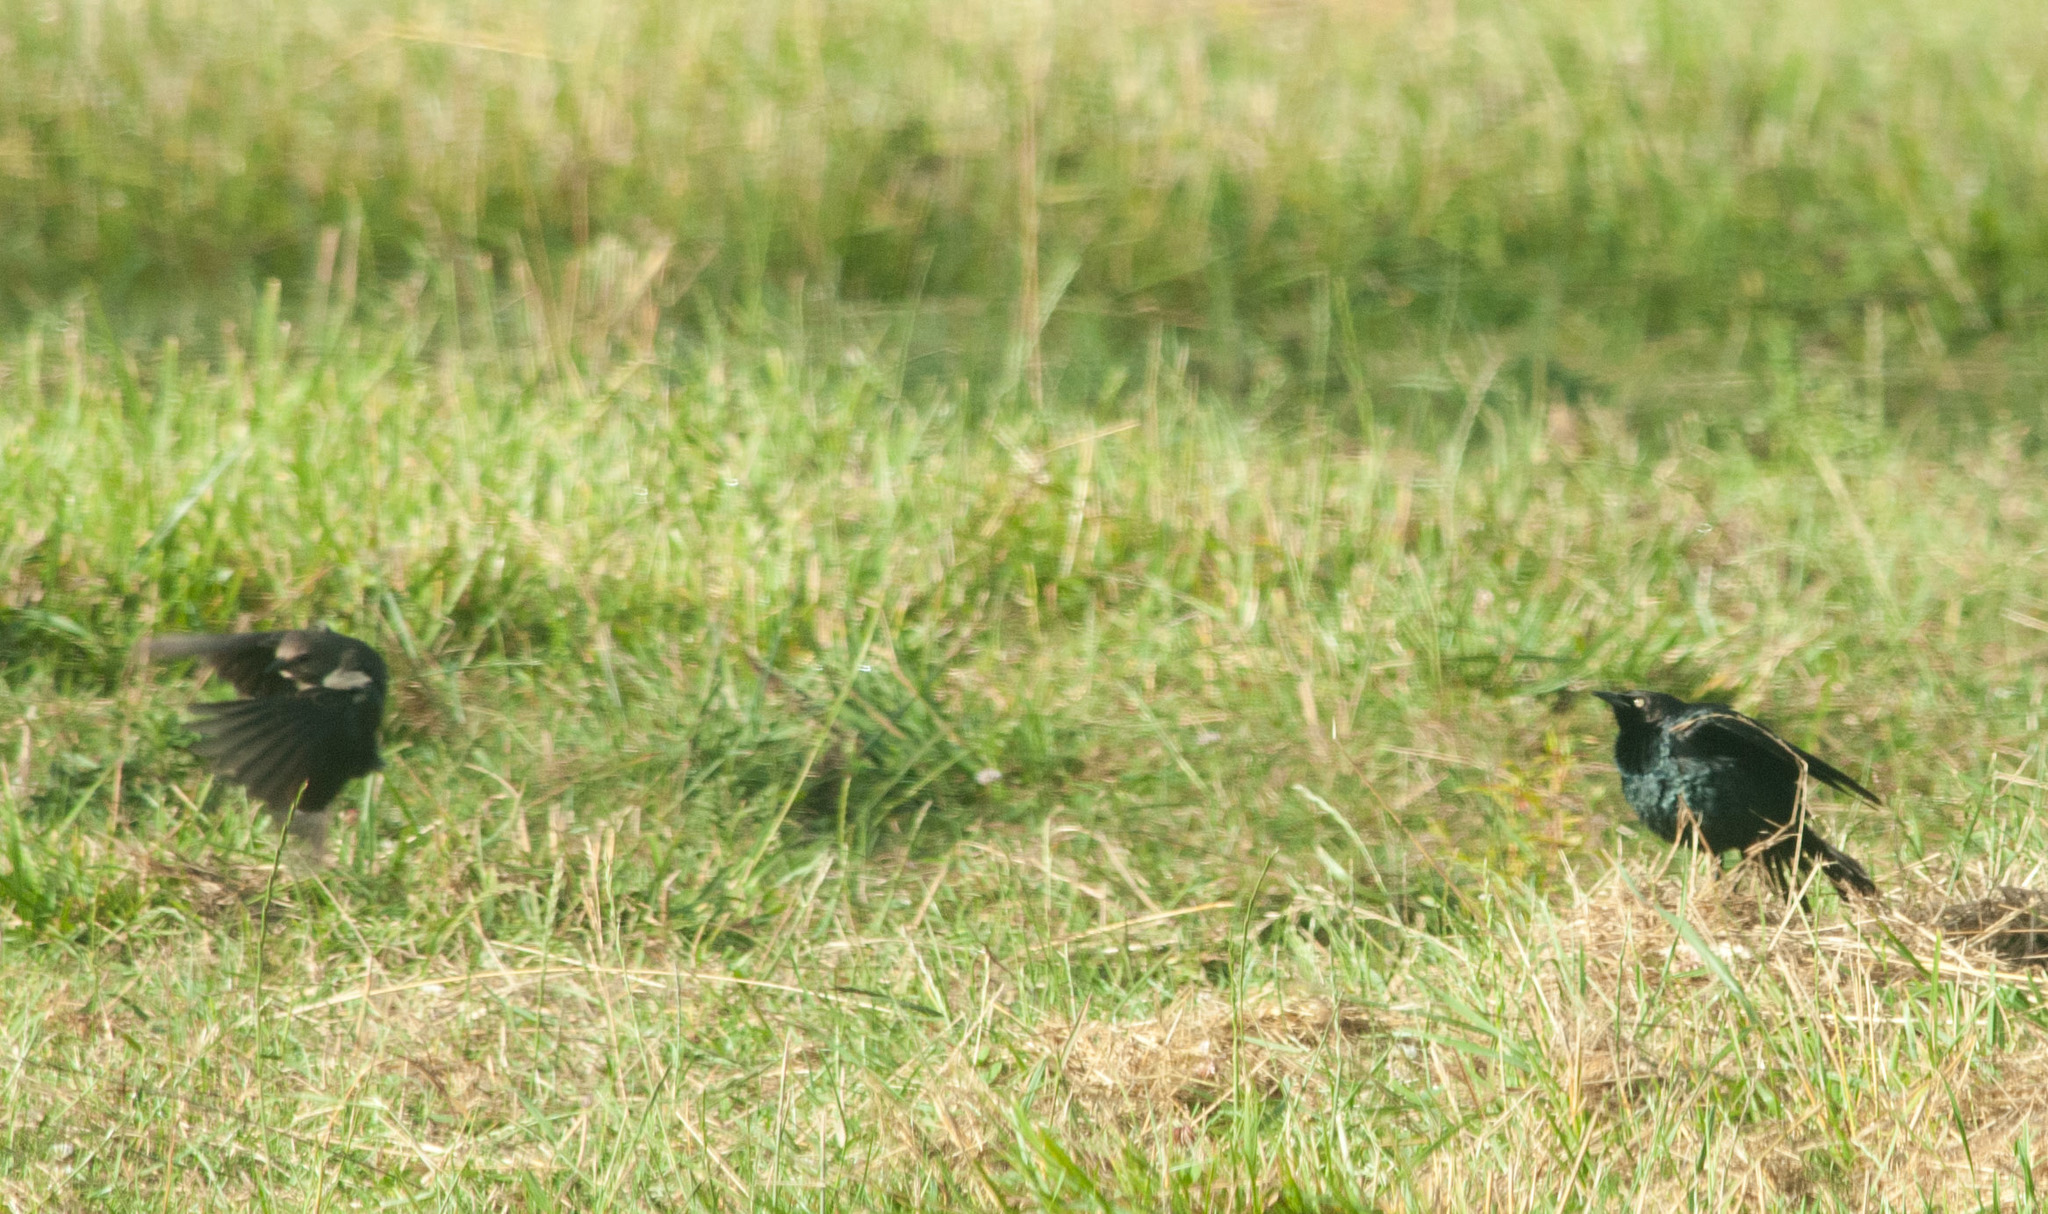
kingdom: Animalia
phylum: Chordata
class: Aves
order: Passeriformes
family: Icteridae
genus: Euphagus
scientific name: Euphagus cyanocephalus
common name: Brewer's blackbird
